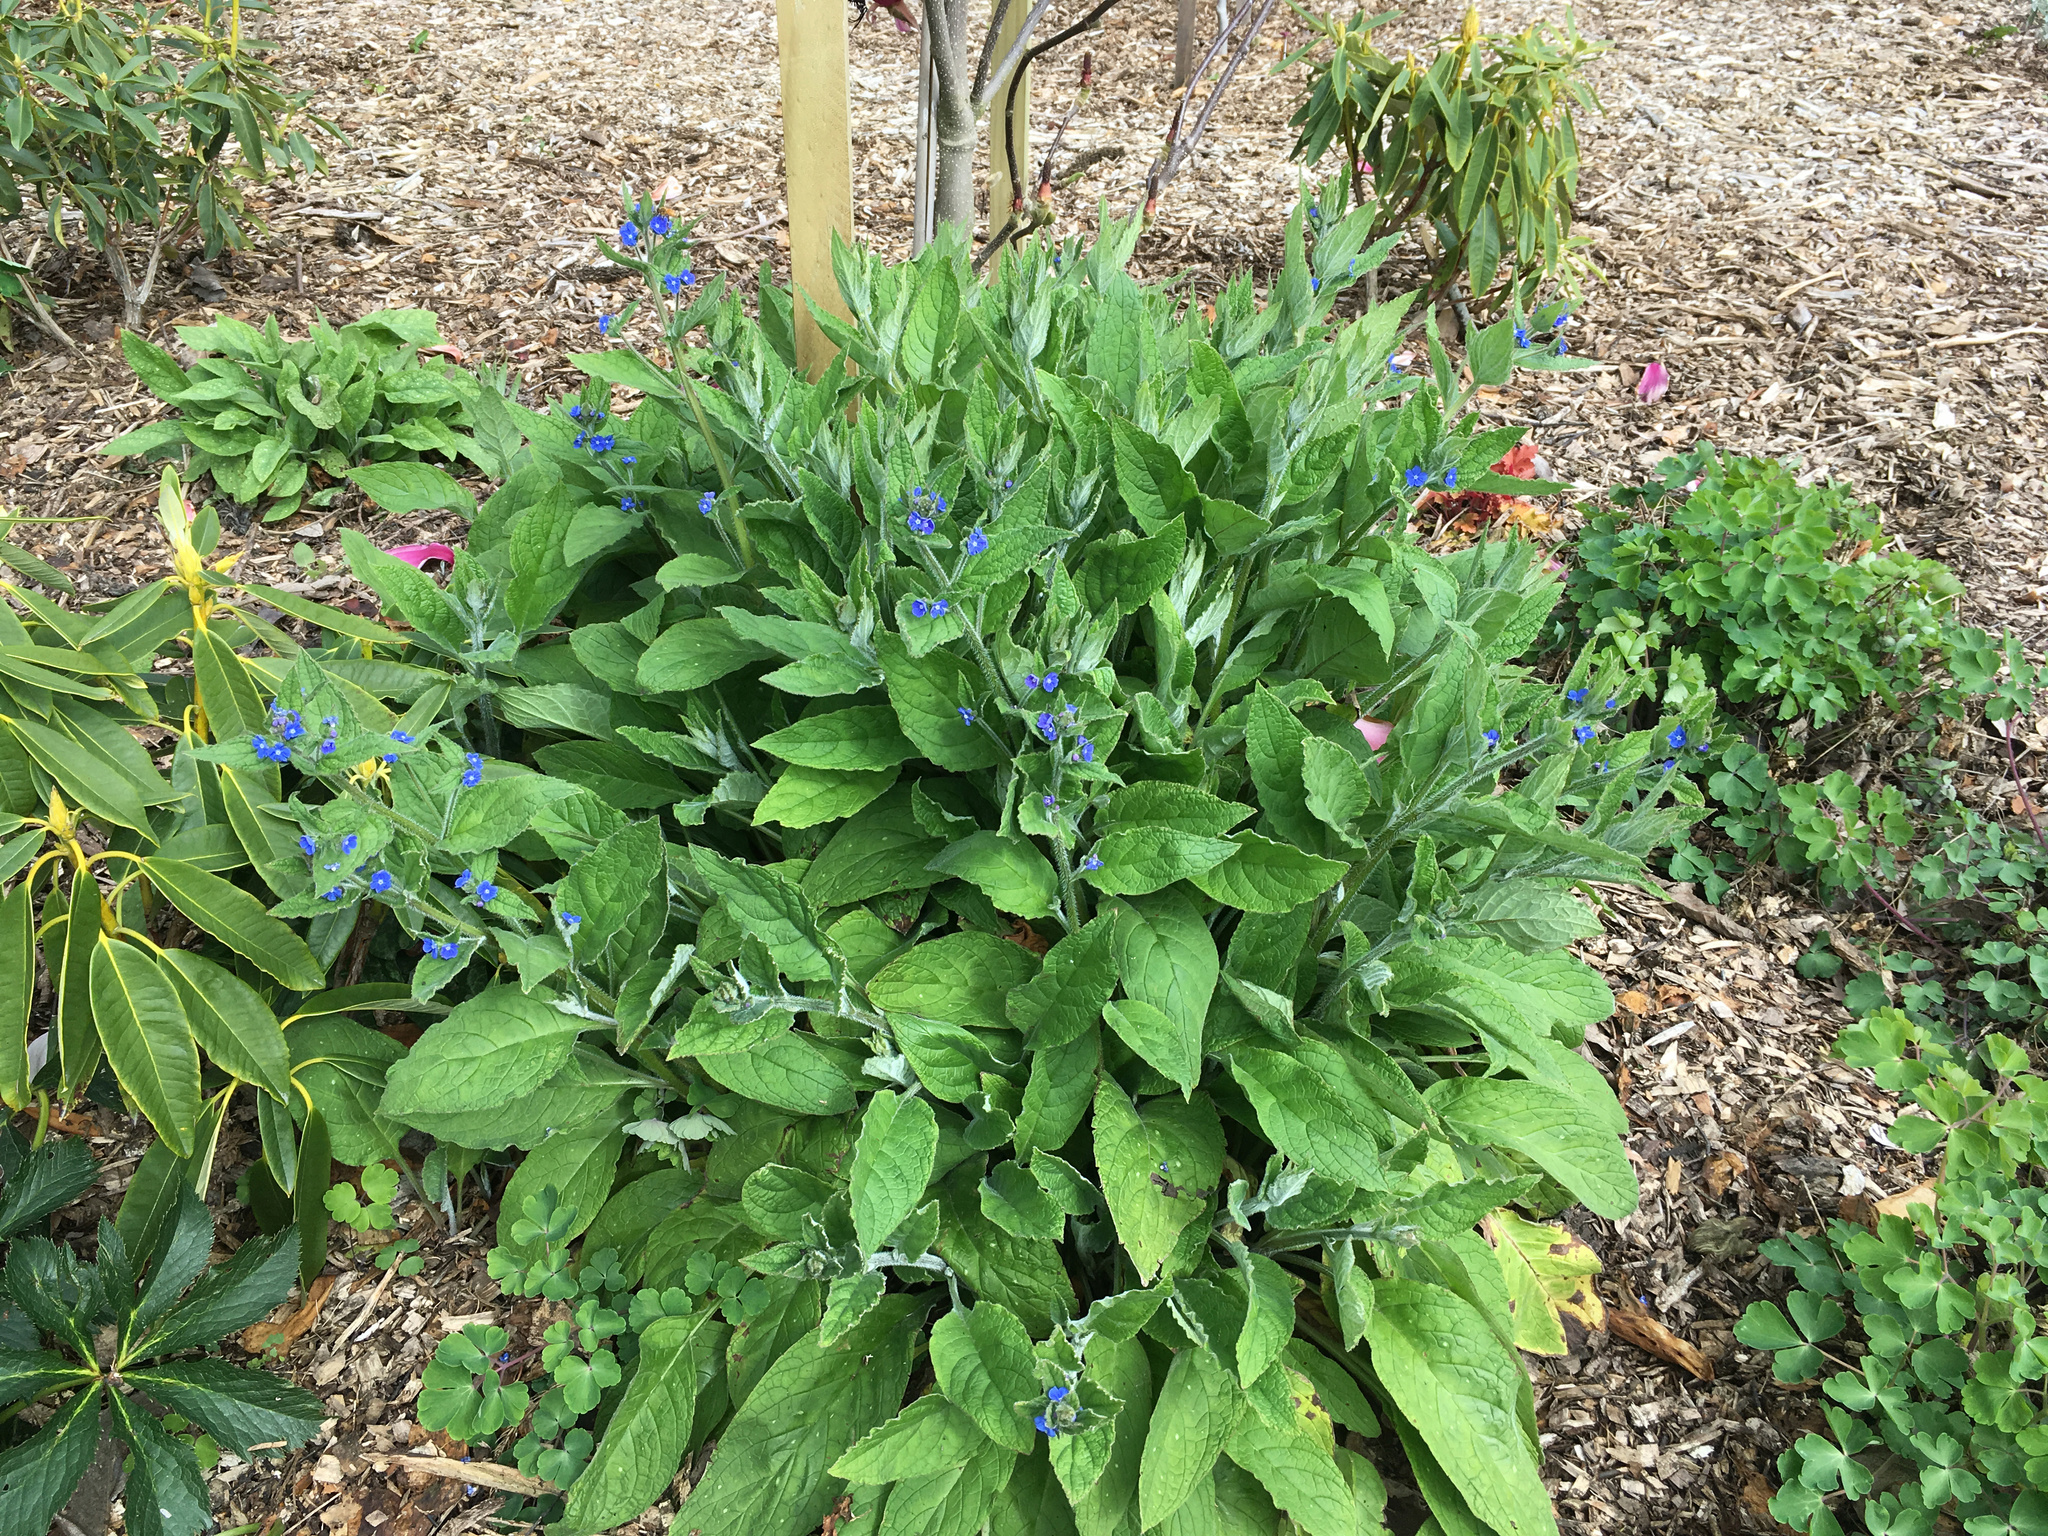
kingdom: Plantae
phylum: Tracheophyta
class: Magnoliopsida
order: Boraginales
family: Boraginaceae
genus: Pentaglottis
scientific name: Pentaglottis sempervirens
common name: Green alkanet
